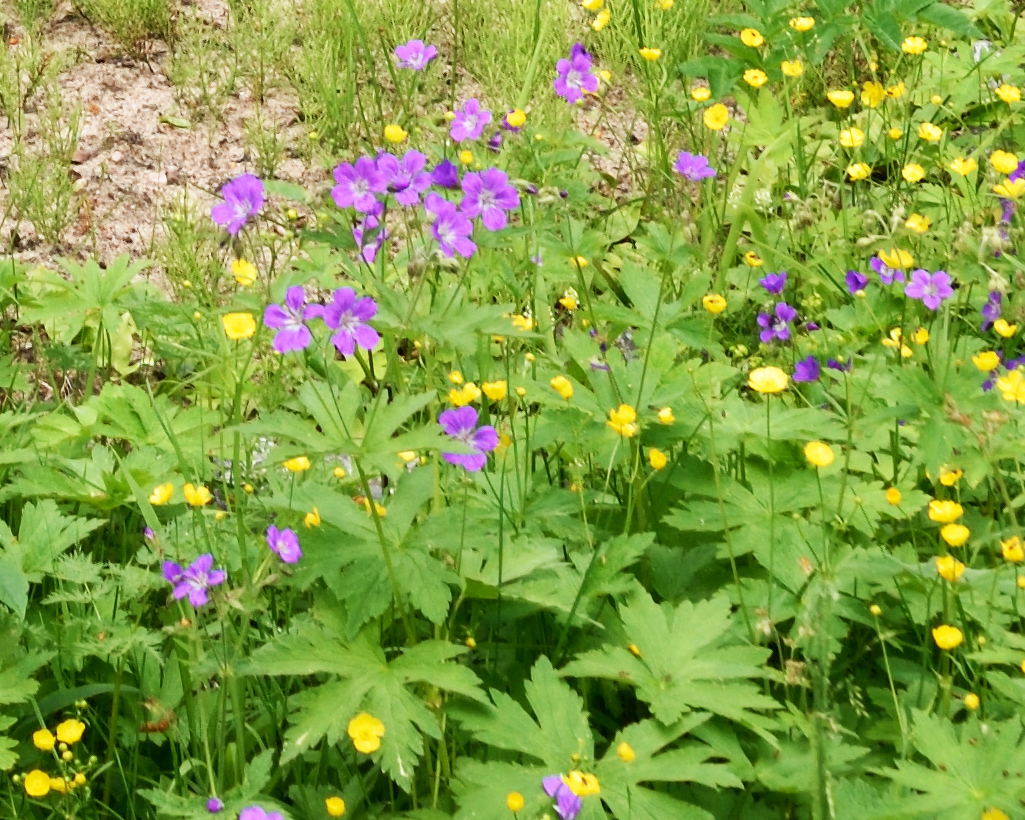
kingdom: Plantae
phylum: Tracheophyta
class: Magnoliopsida
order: Geraniales
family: Geraniaceae
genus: Geranium
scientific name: Geranium sylvaticum
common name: Wood crane's-bill
